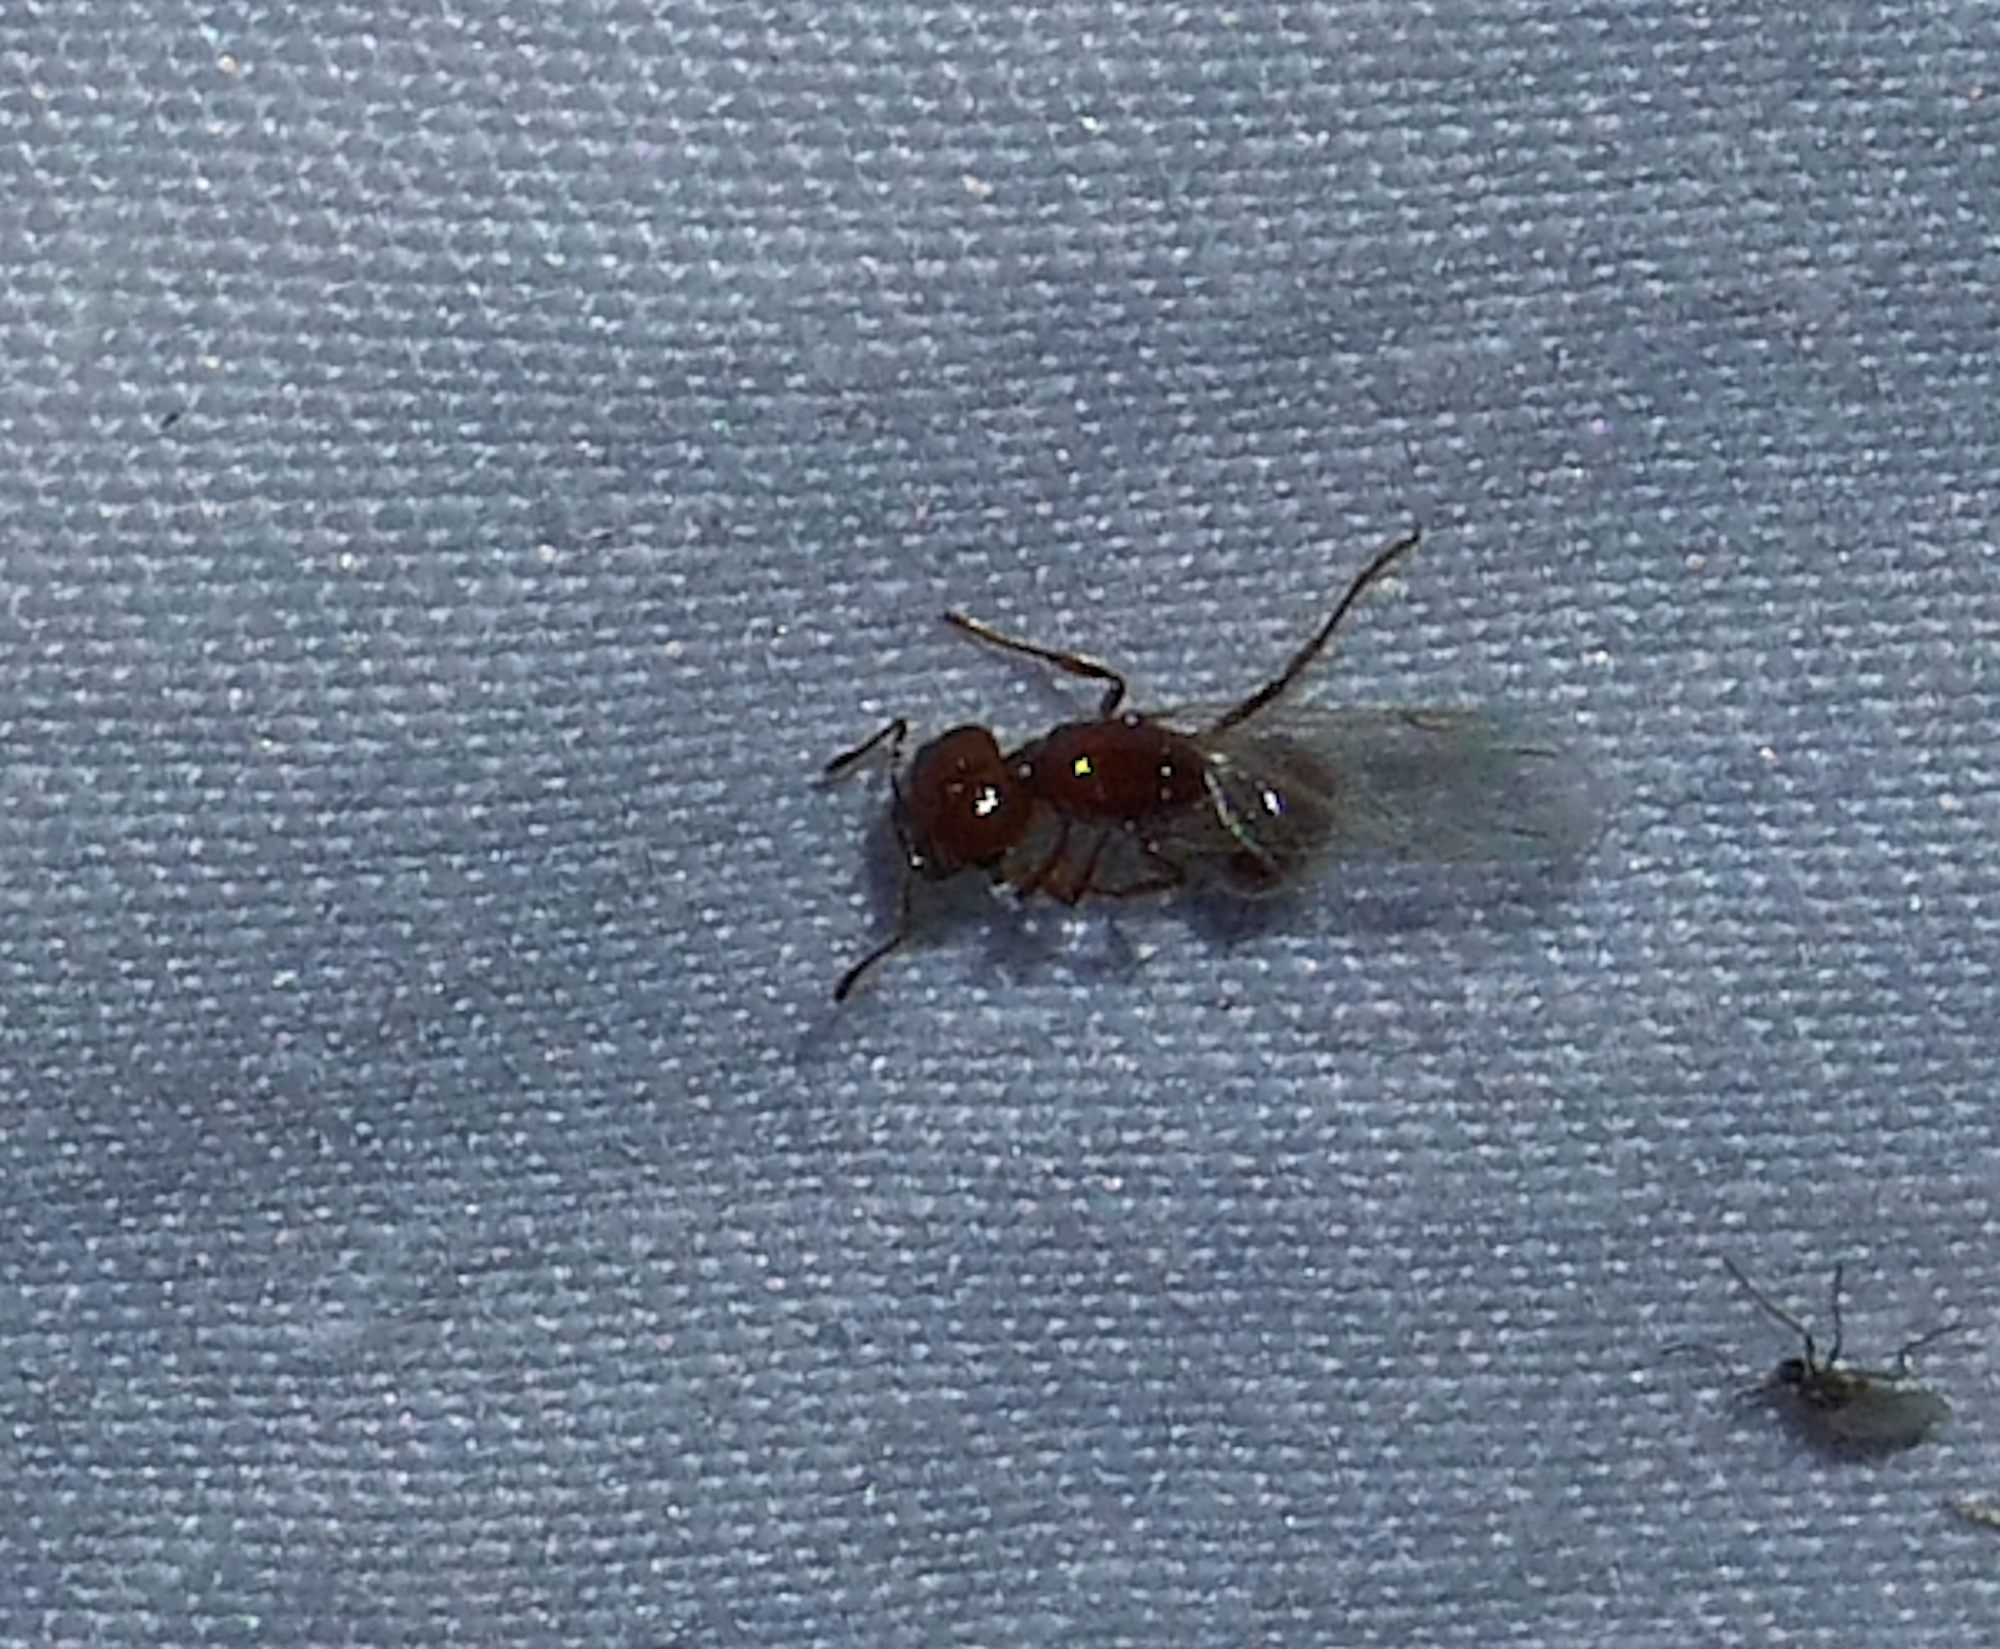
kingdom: Animalia
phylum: Arthropoda
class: Insecta
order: Hymenoptera
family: Formicidae
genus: Solenopsis
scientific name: Solenopsis amblychila
